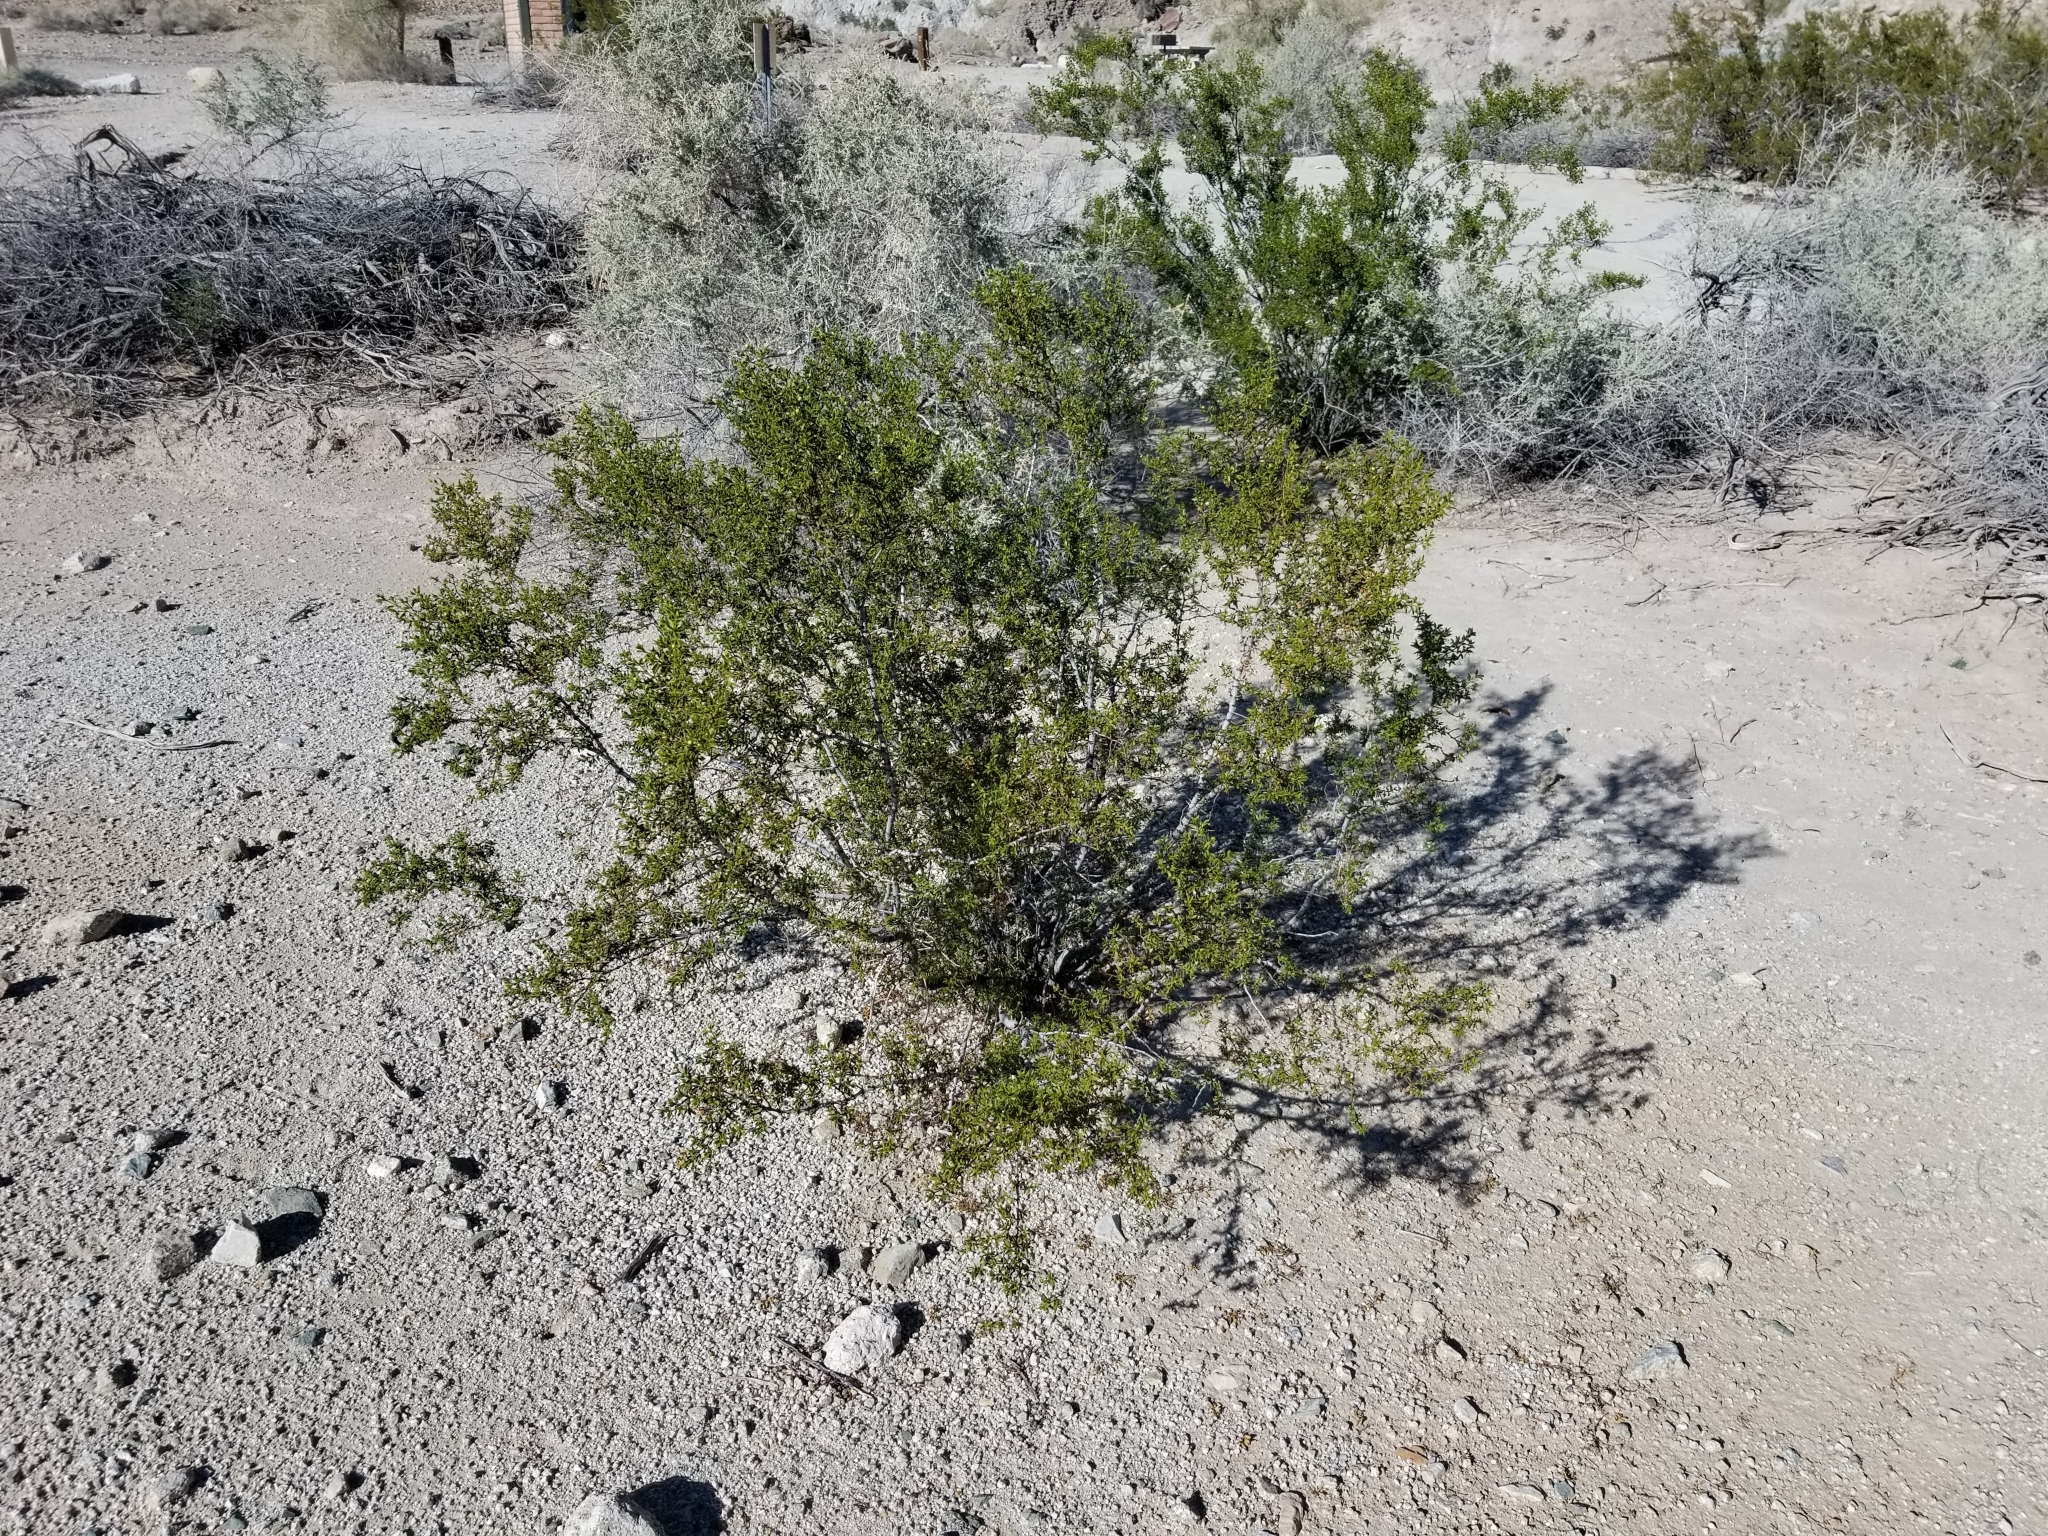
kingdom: Plantae
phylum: Tracheophyta
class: Magnoliopsida
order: Zygophyllales
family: Zygophyllaceae
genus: Larrea
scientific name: Larrea tridentata
